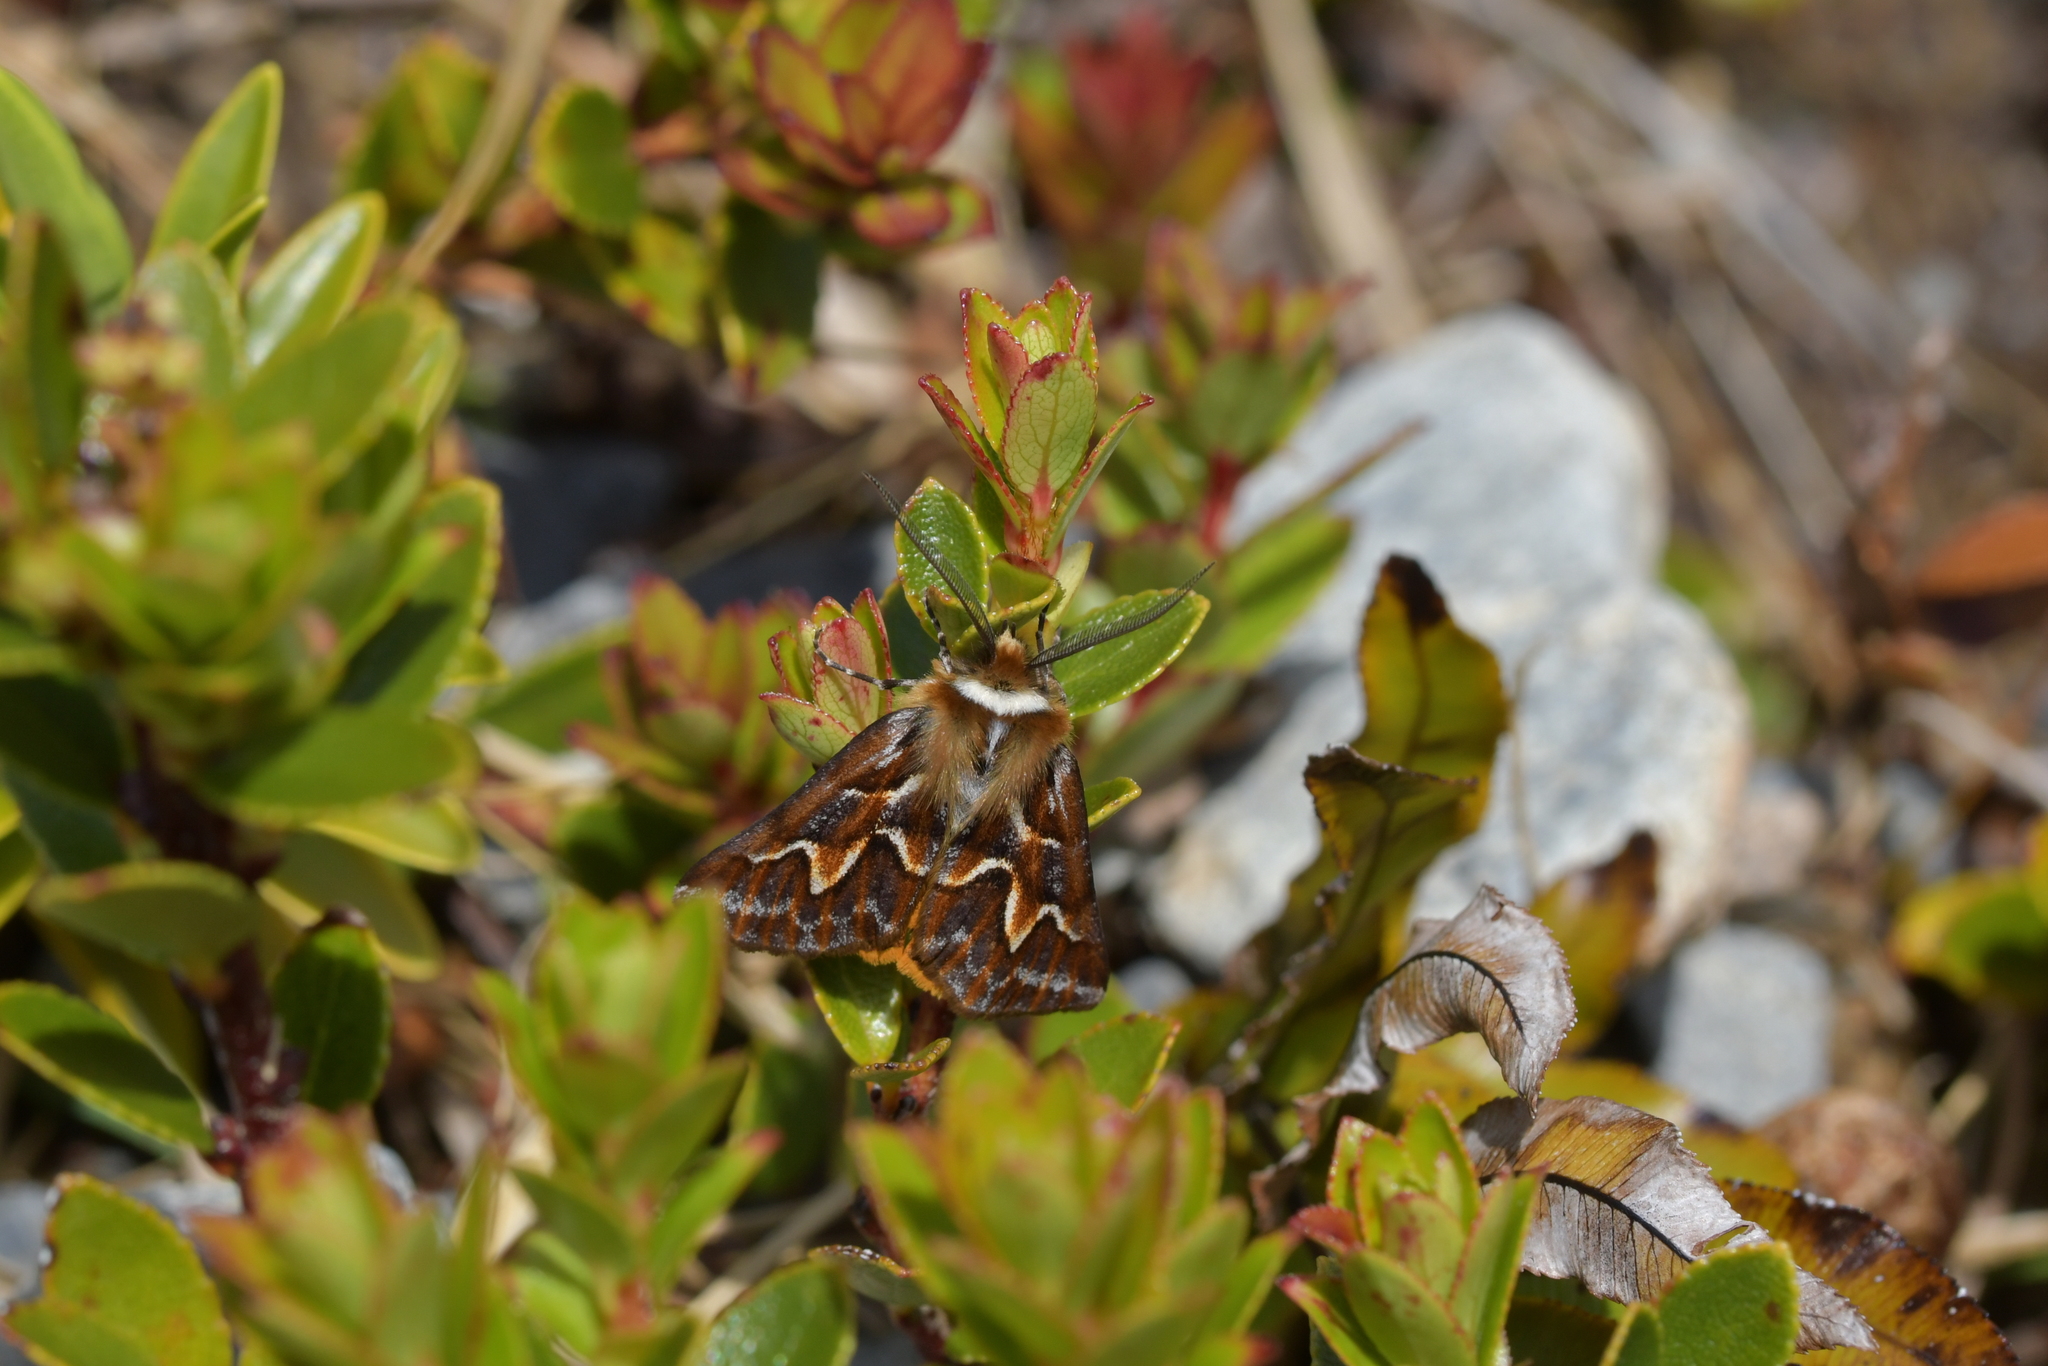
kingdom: Animalia
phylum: Arthropoda
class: Insecta
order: Lepidoptera
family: Geometridae
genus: Declana
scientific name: Declana
